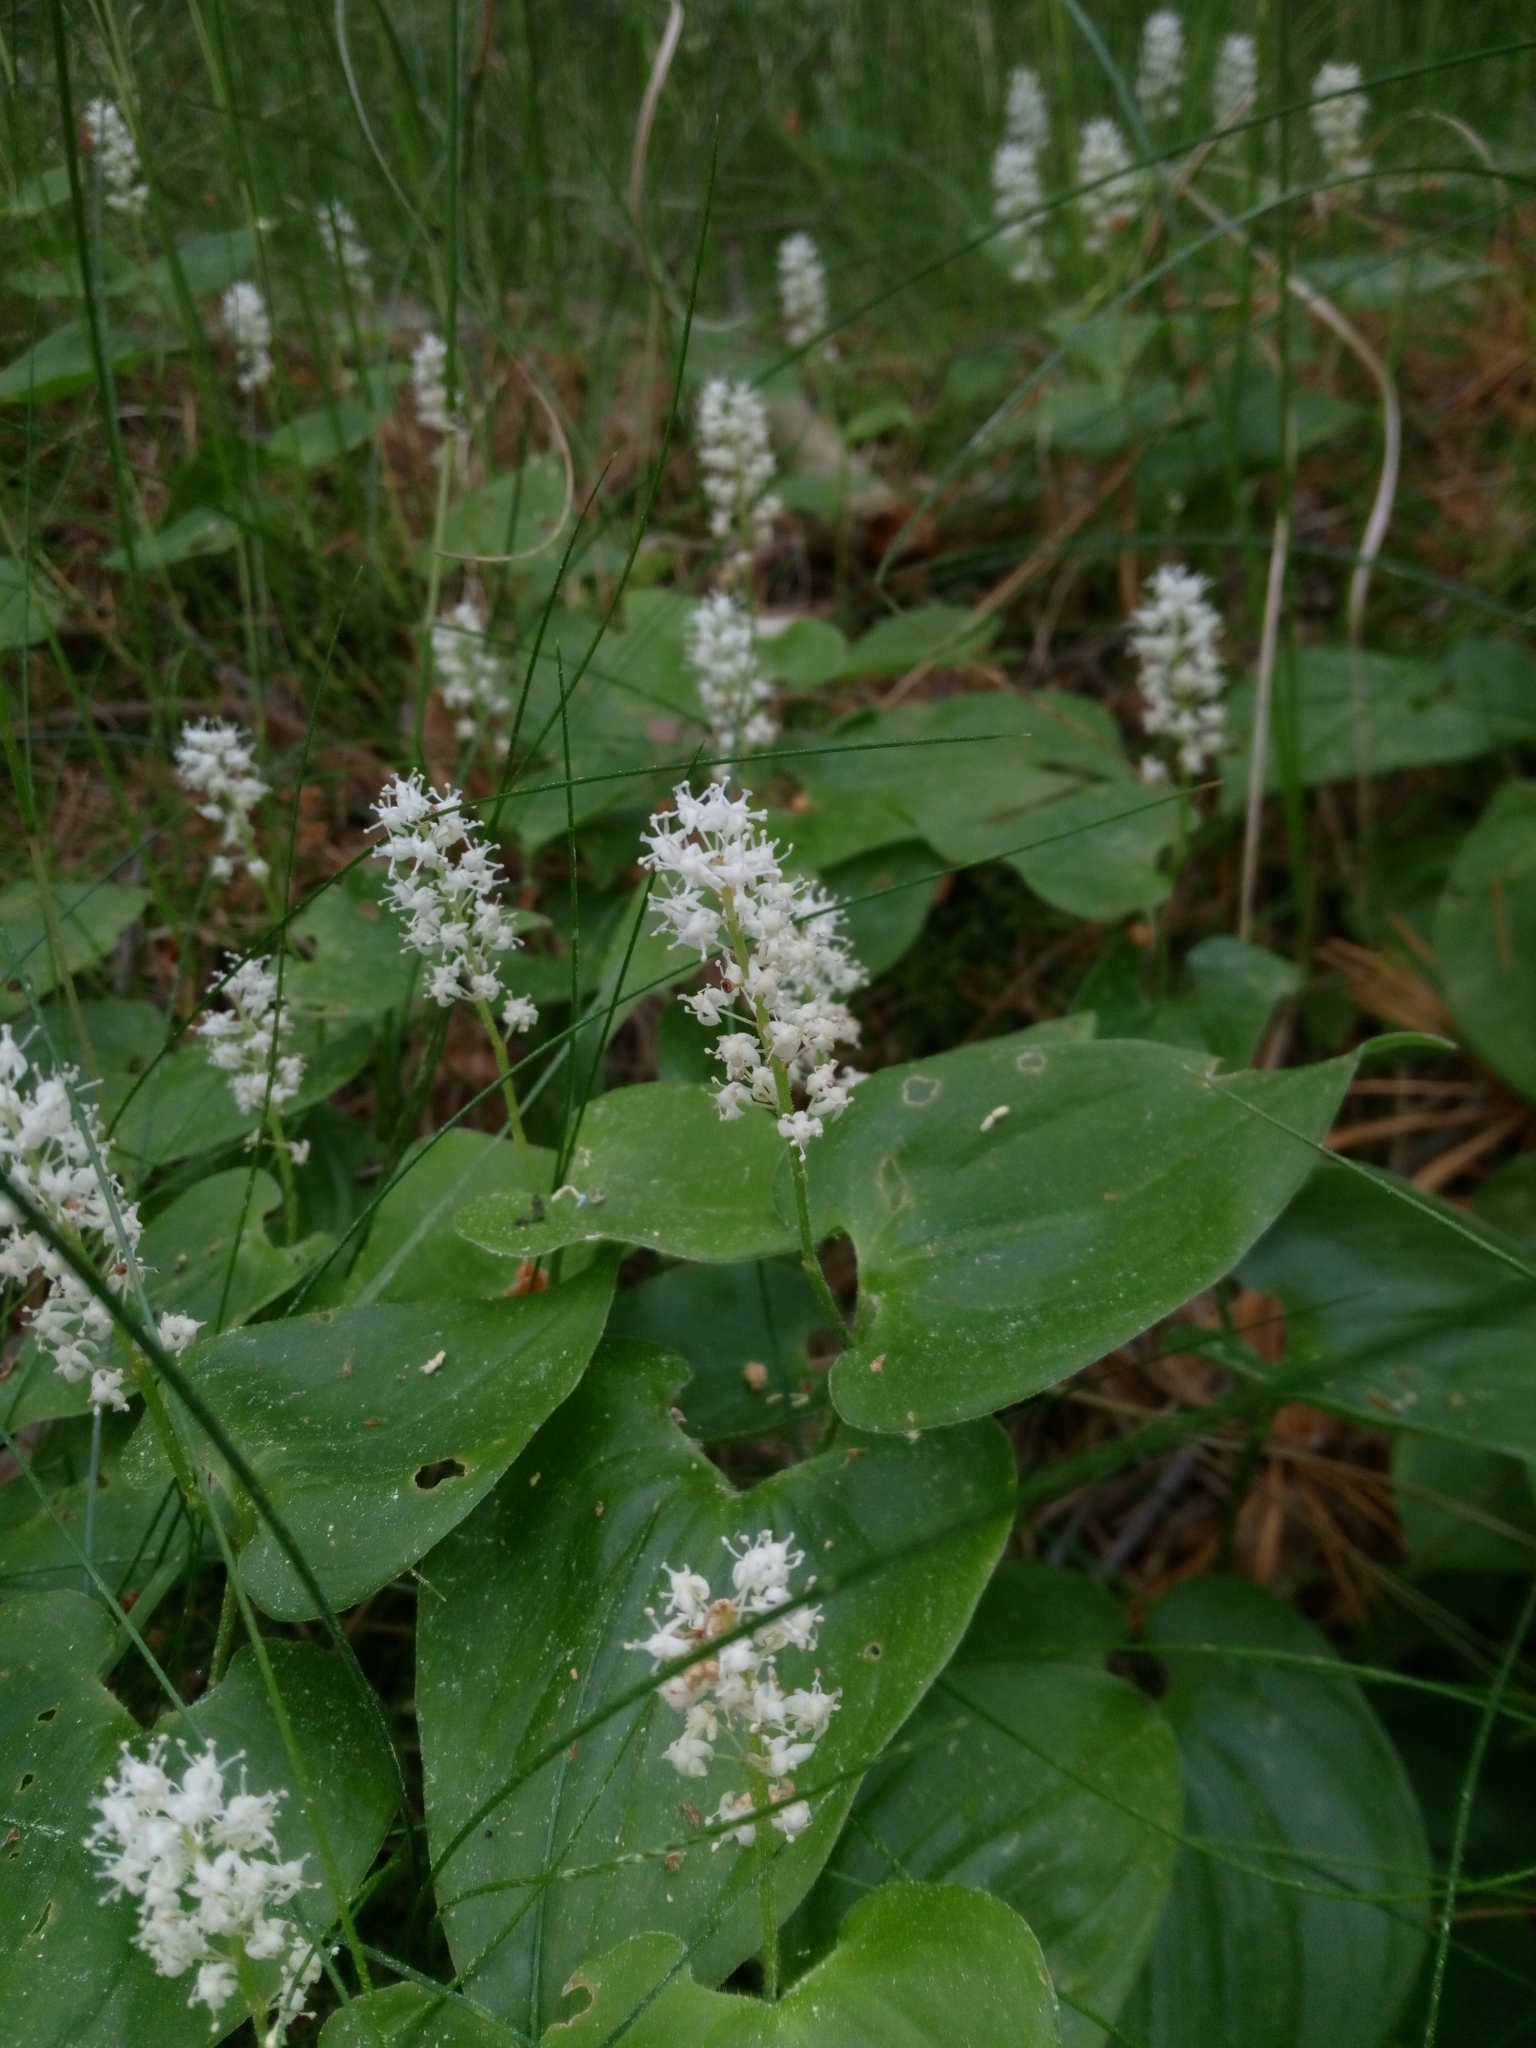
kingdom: Plantae
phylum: Tracheophyta
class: Liliopsida
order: Asparagales
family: Asparagaceae
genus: Maianthemum
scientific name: Maianthemum bifolium
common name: May lily
